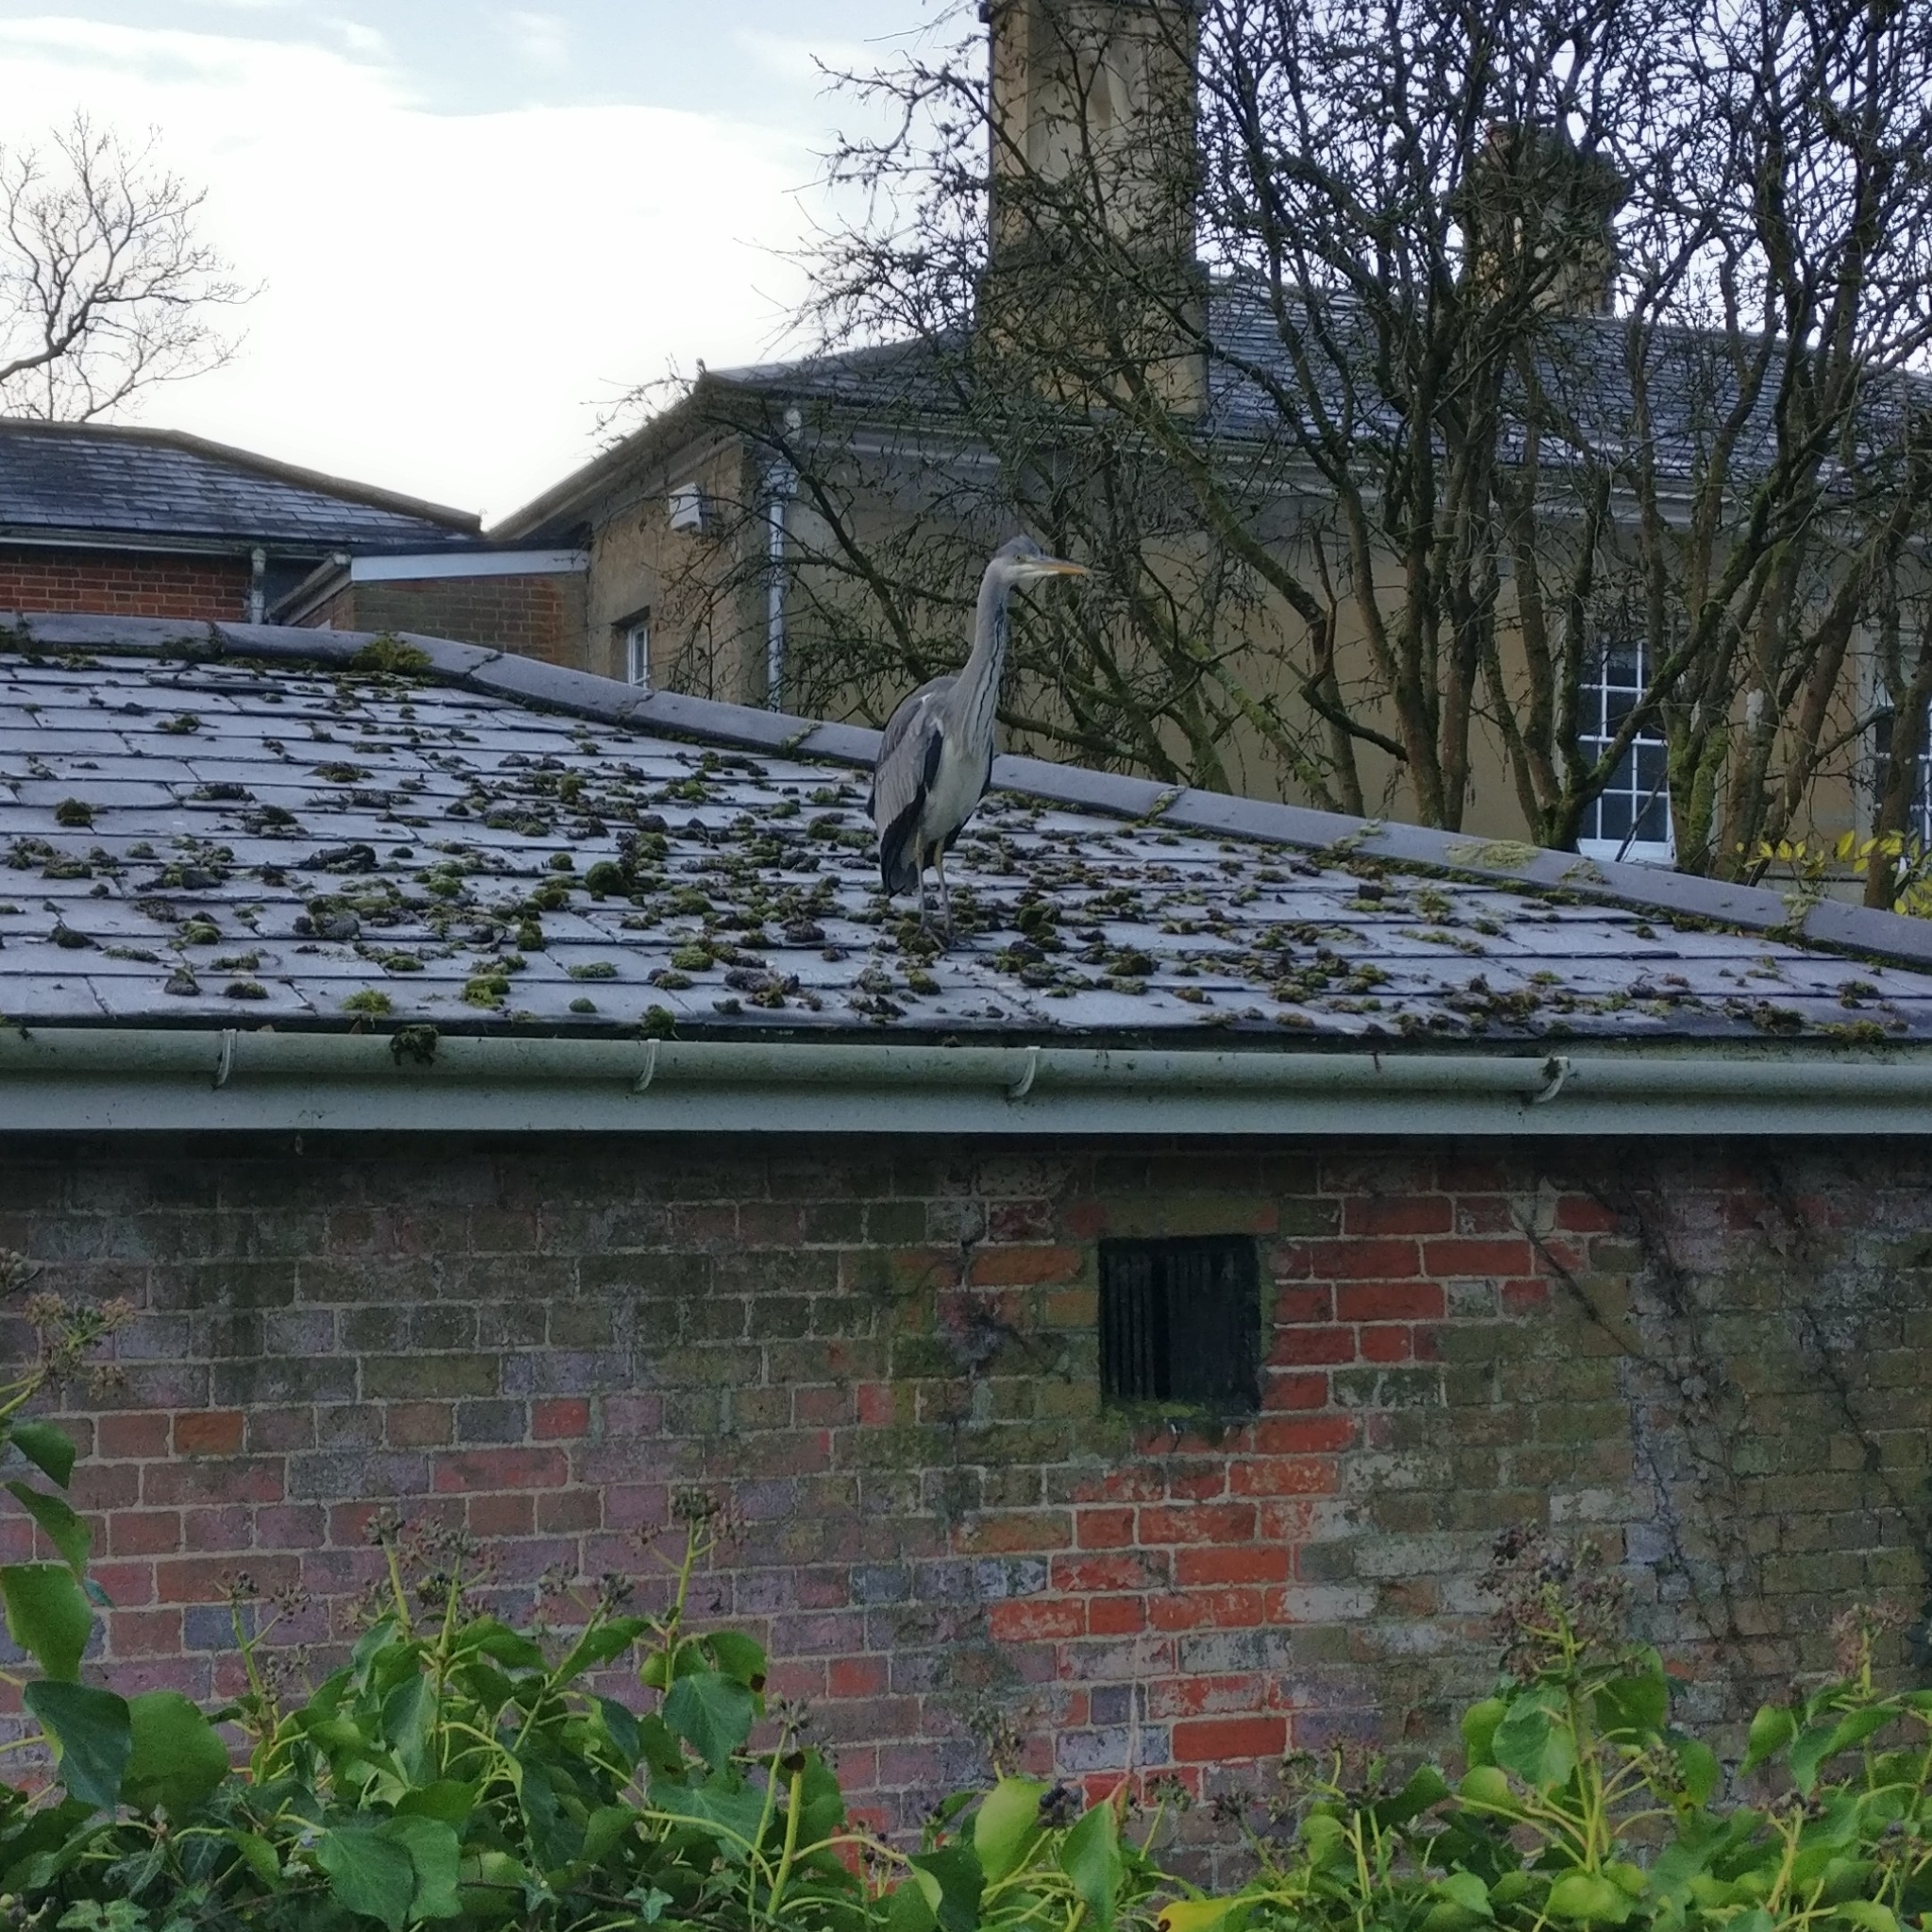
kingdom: Animalia
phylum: Chordata
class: Aves
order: Pelecaniformes
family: Ardeidae
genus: Ardea
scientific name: Ardea cinerea
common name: Grey heron
